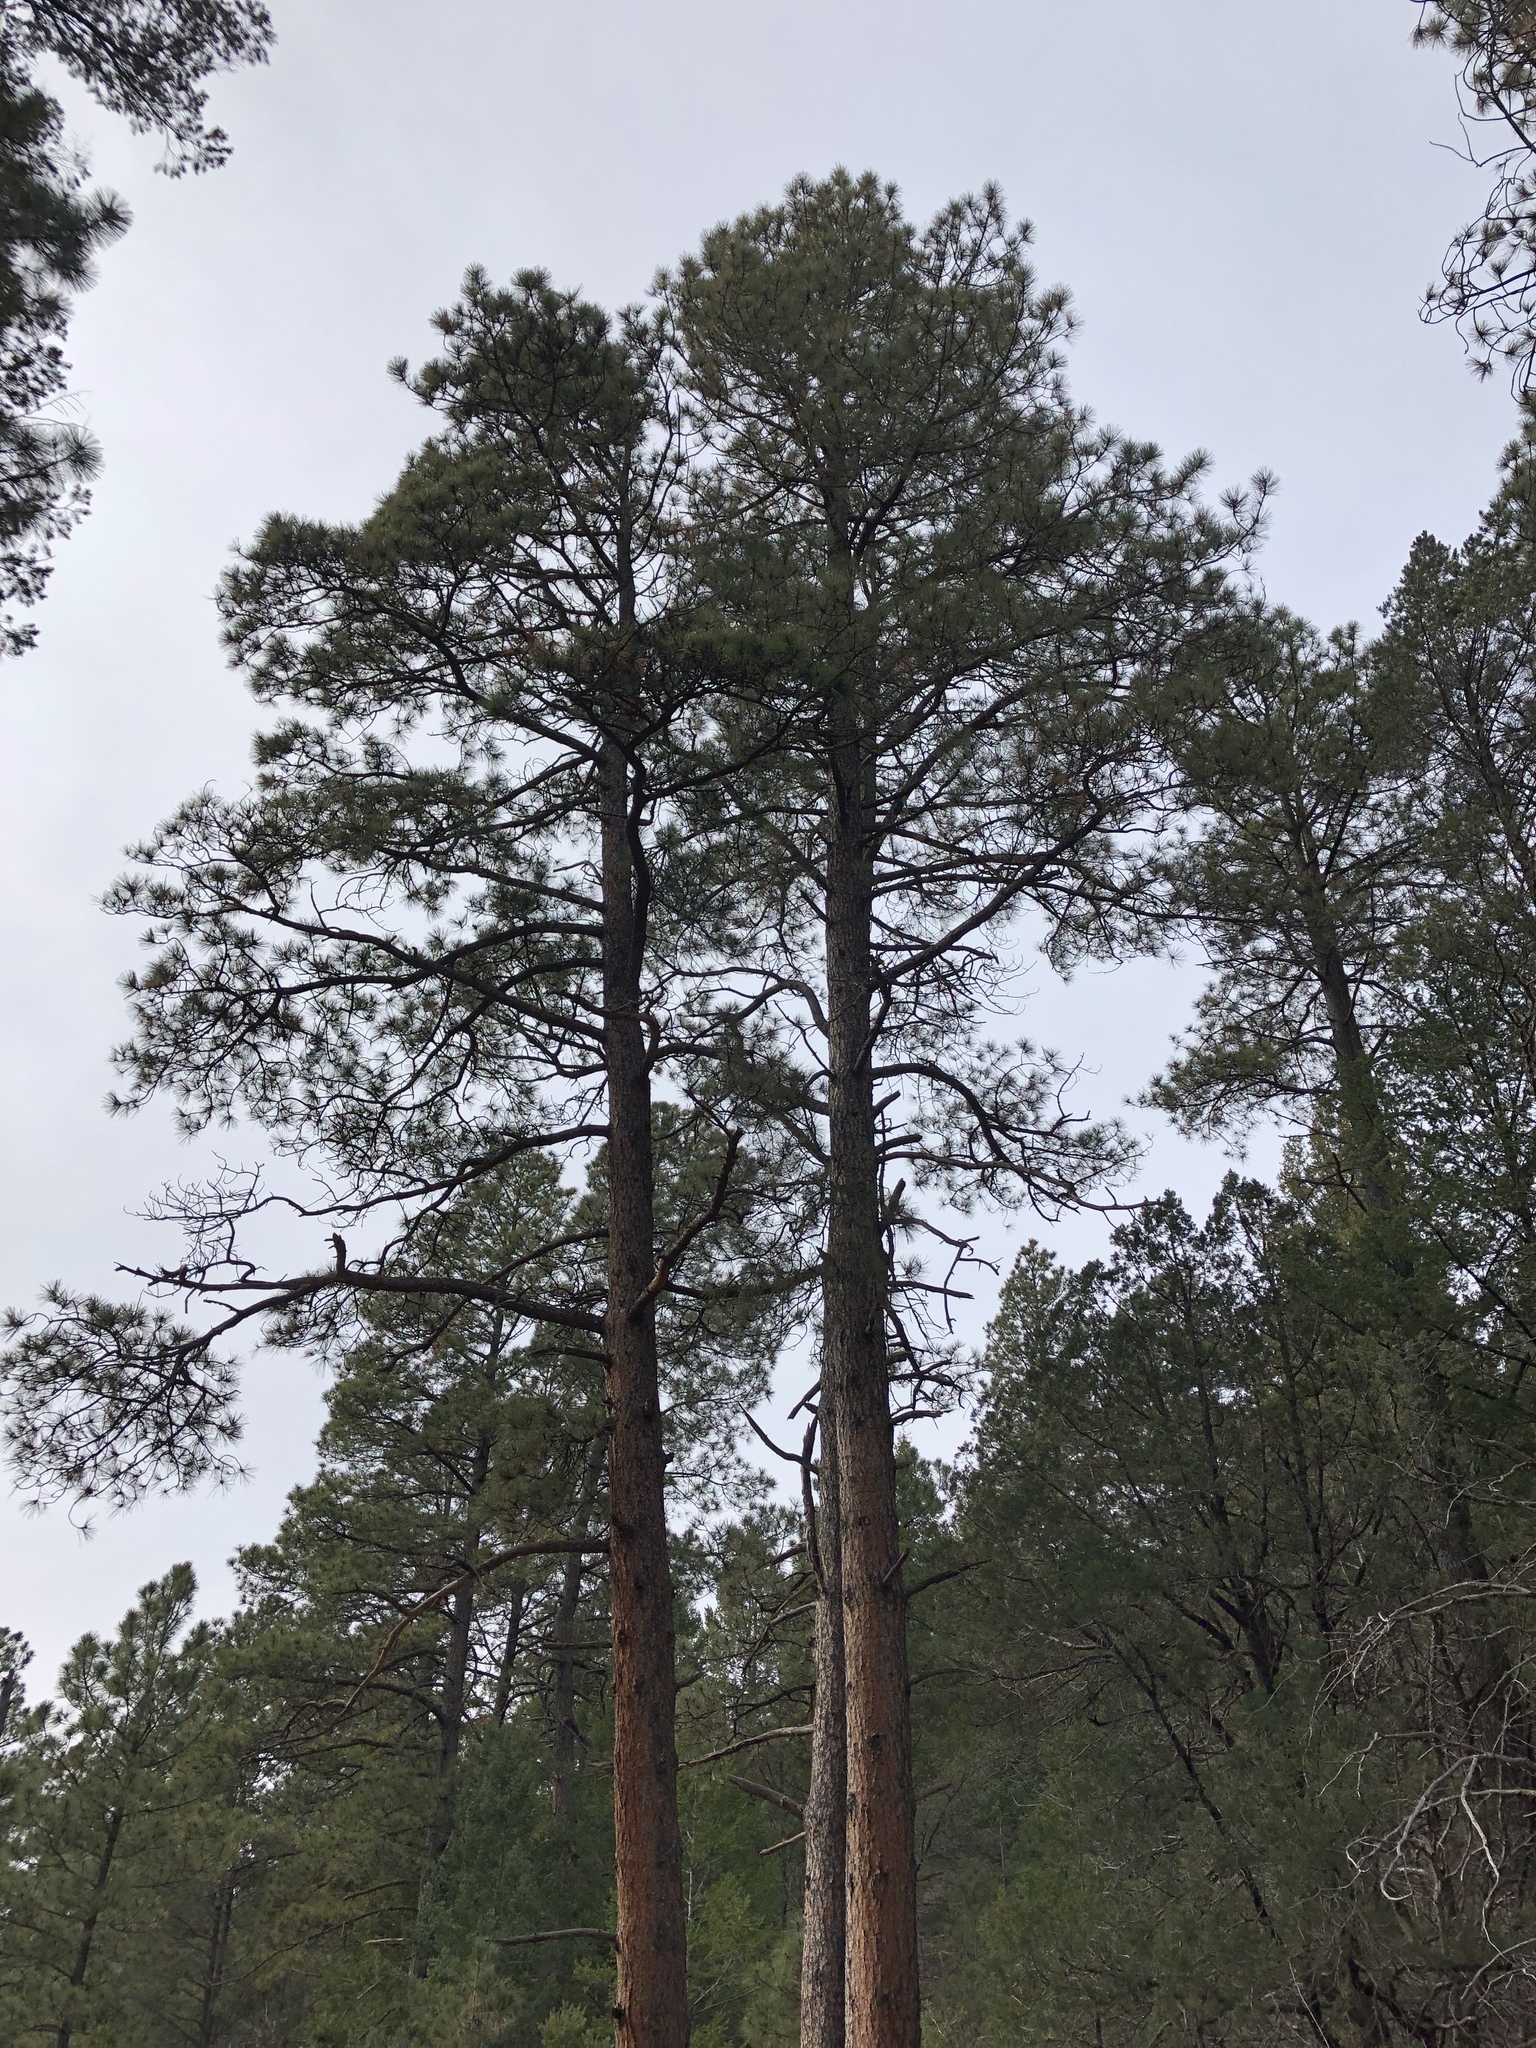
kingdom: Plantae
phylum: Tracheophyta
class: Pinopsida
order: Pinales
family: Pinaceae
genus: Pinus
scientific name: Pinus ponderosa
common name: Western yellow-pine
